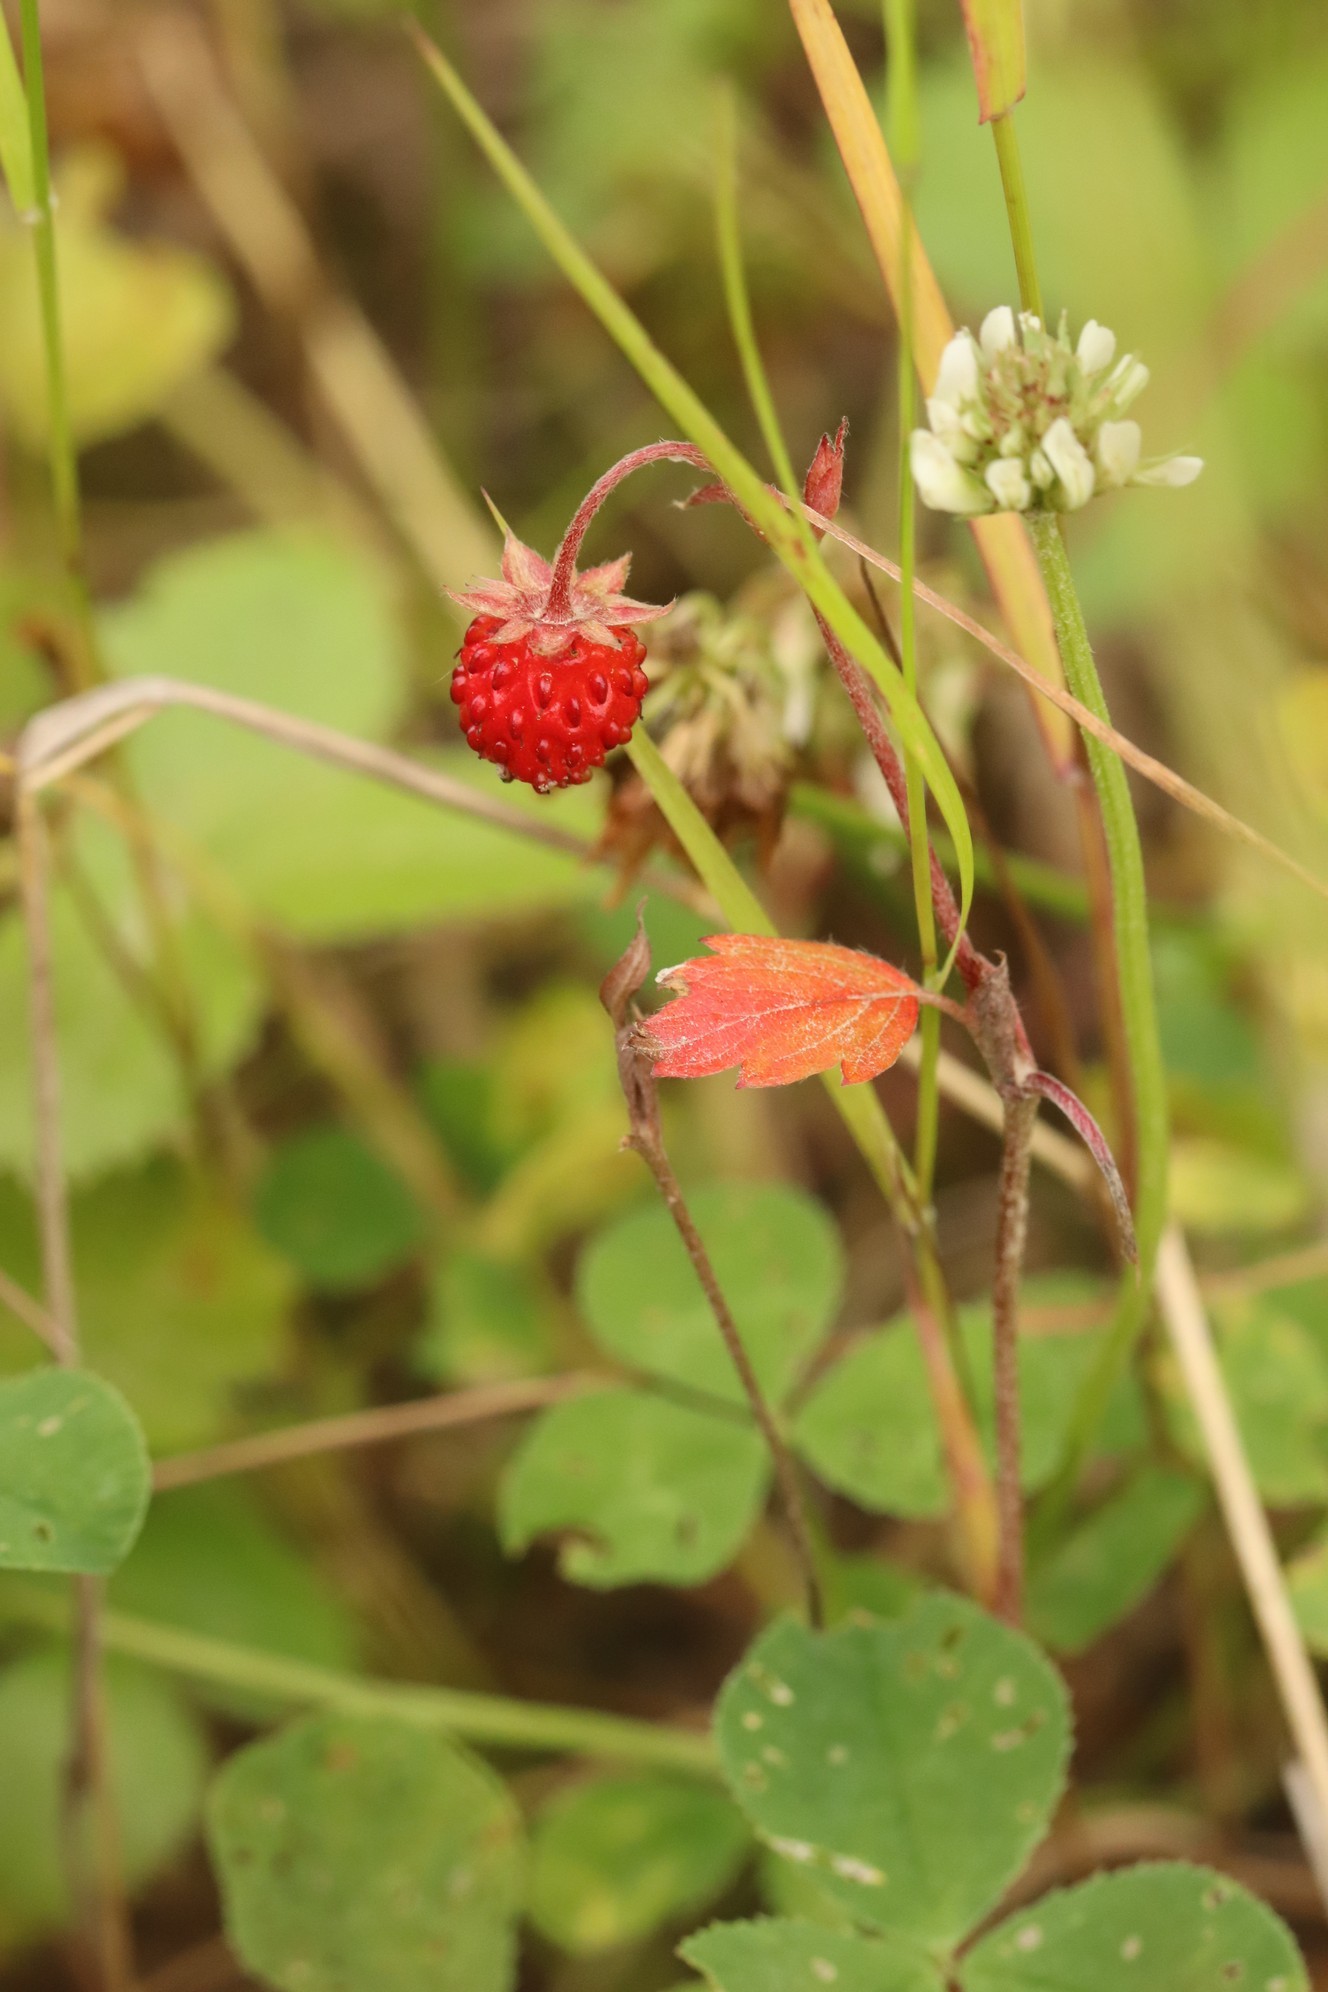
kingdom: Plantae
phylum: Tracheophyta
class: Magnoliopsida
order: Rosales
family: Rosaceae
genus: Fragaria
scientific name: Fragaria vesca
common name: Wild strawberry
